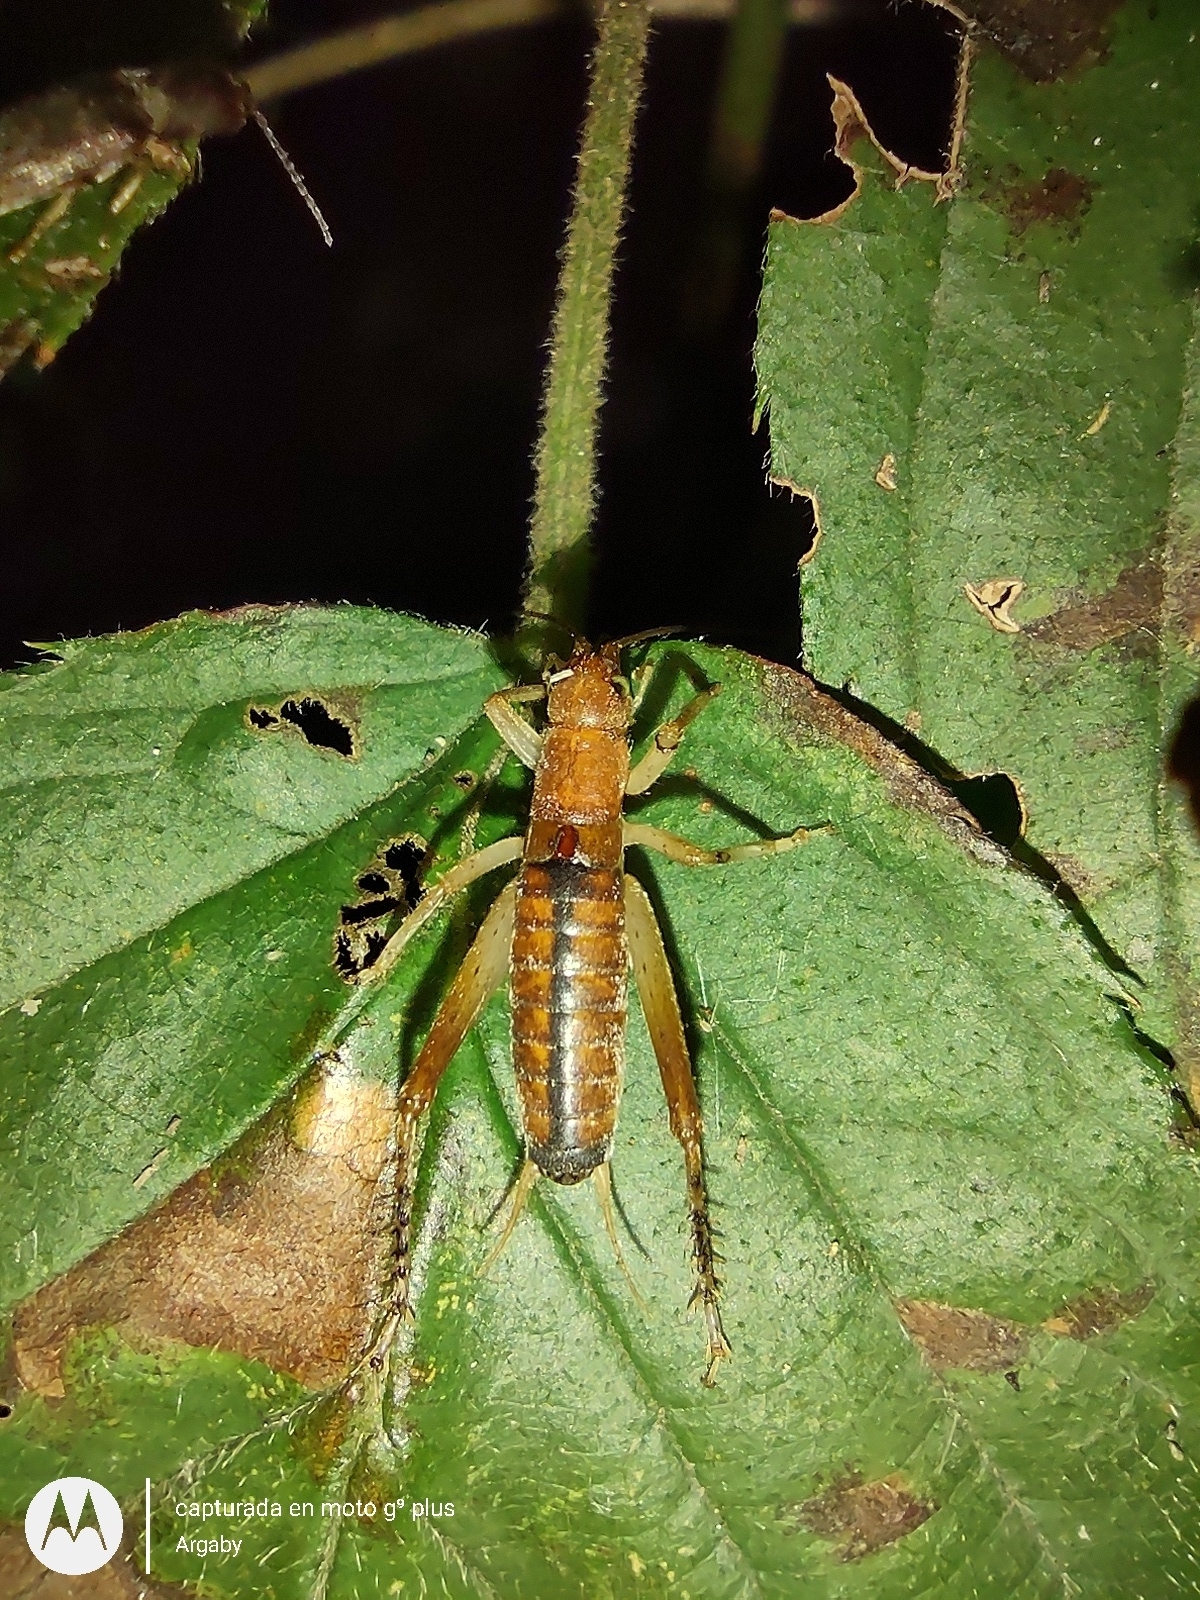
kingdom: Animalia
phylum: Arthropoda
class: Insecta
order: Orthoptera
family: Gryllidae
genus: Neometrypus
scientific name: Neometrypus aculeatus
